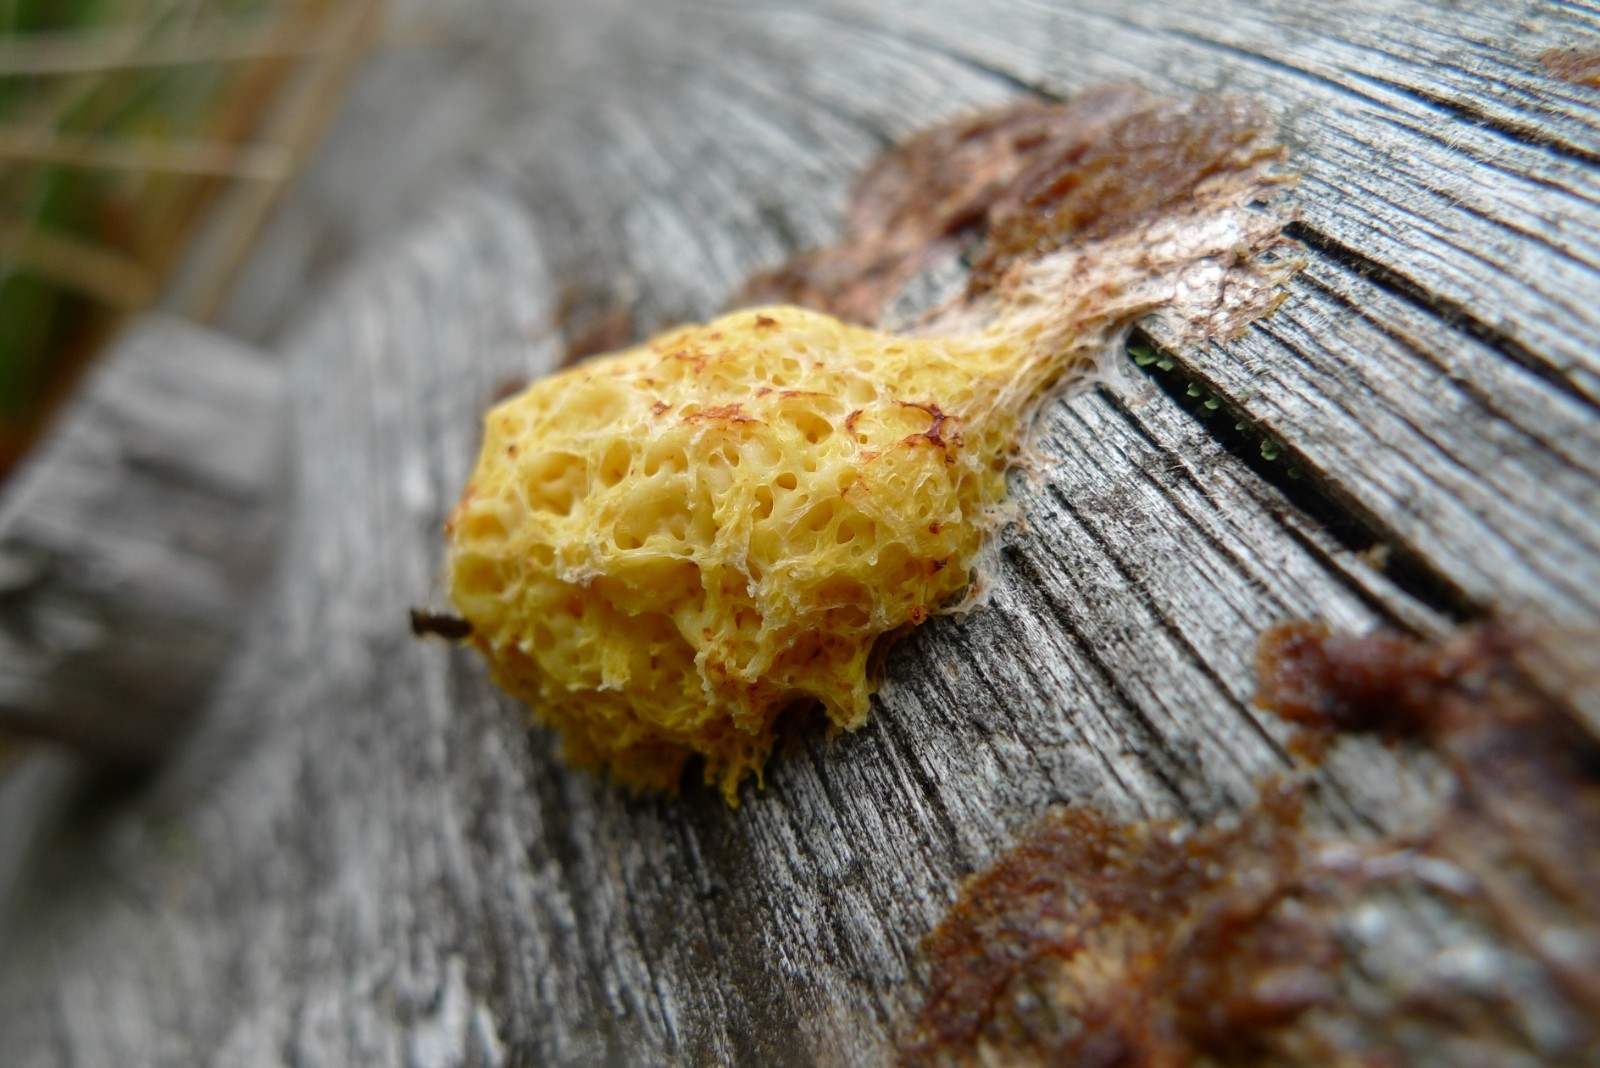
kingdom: Protozoa
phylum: Mycetozoa
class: Myxomycetes
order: Physarales
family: Physaraceae
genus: Fuligo
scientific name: Fuligo septica
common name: Dog vomit slime mold
